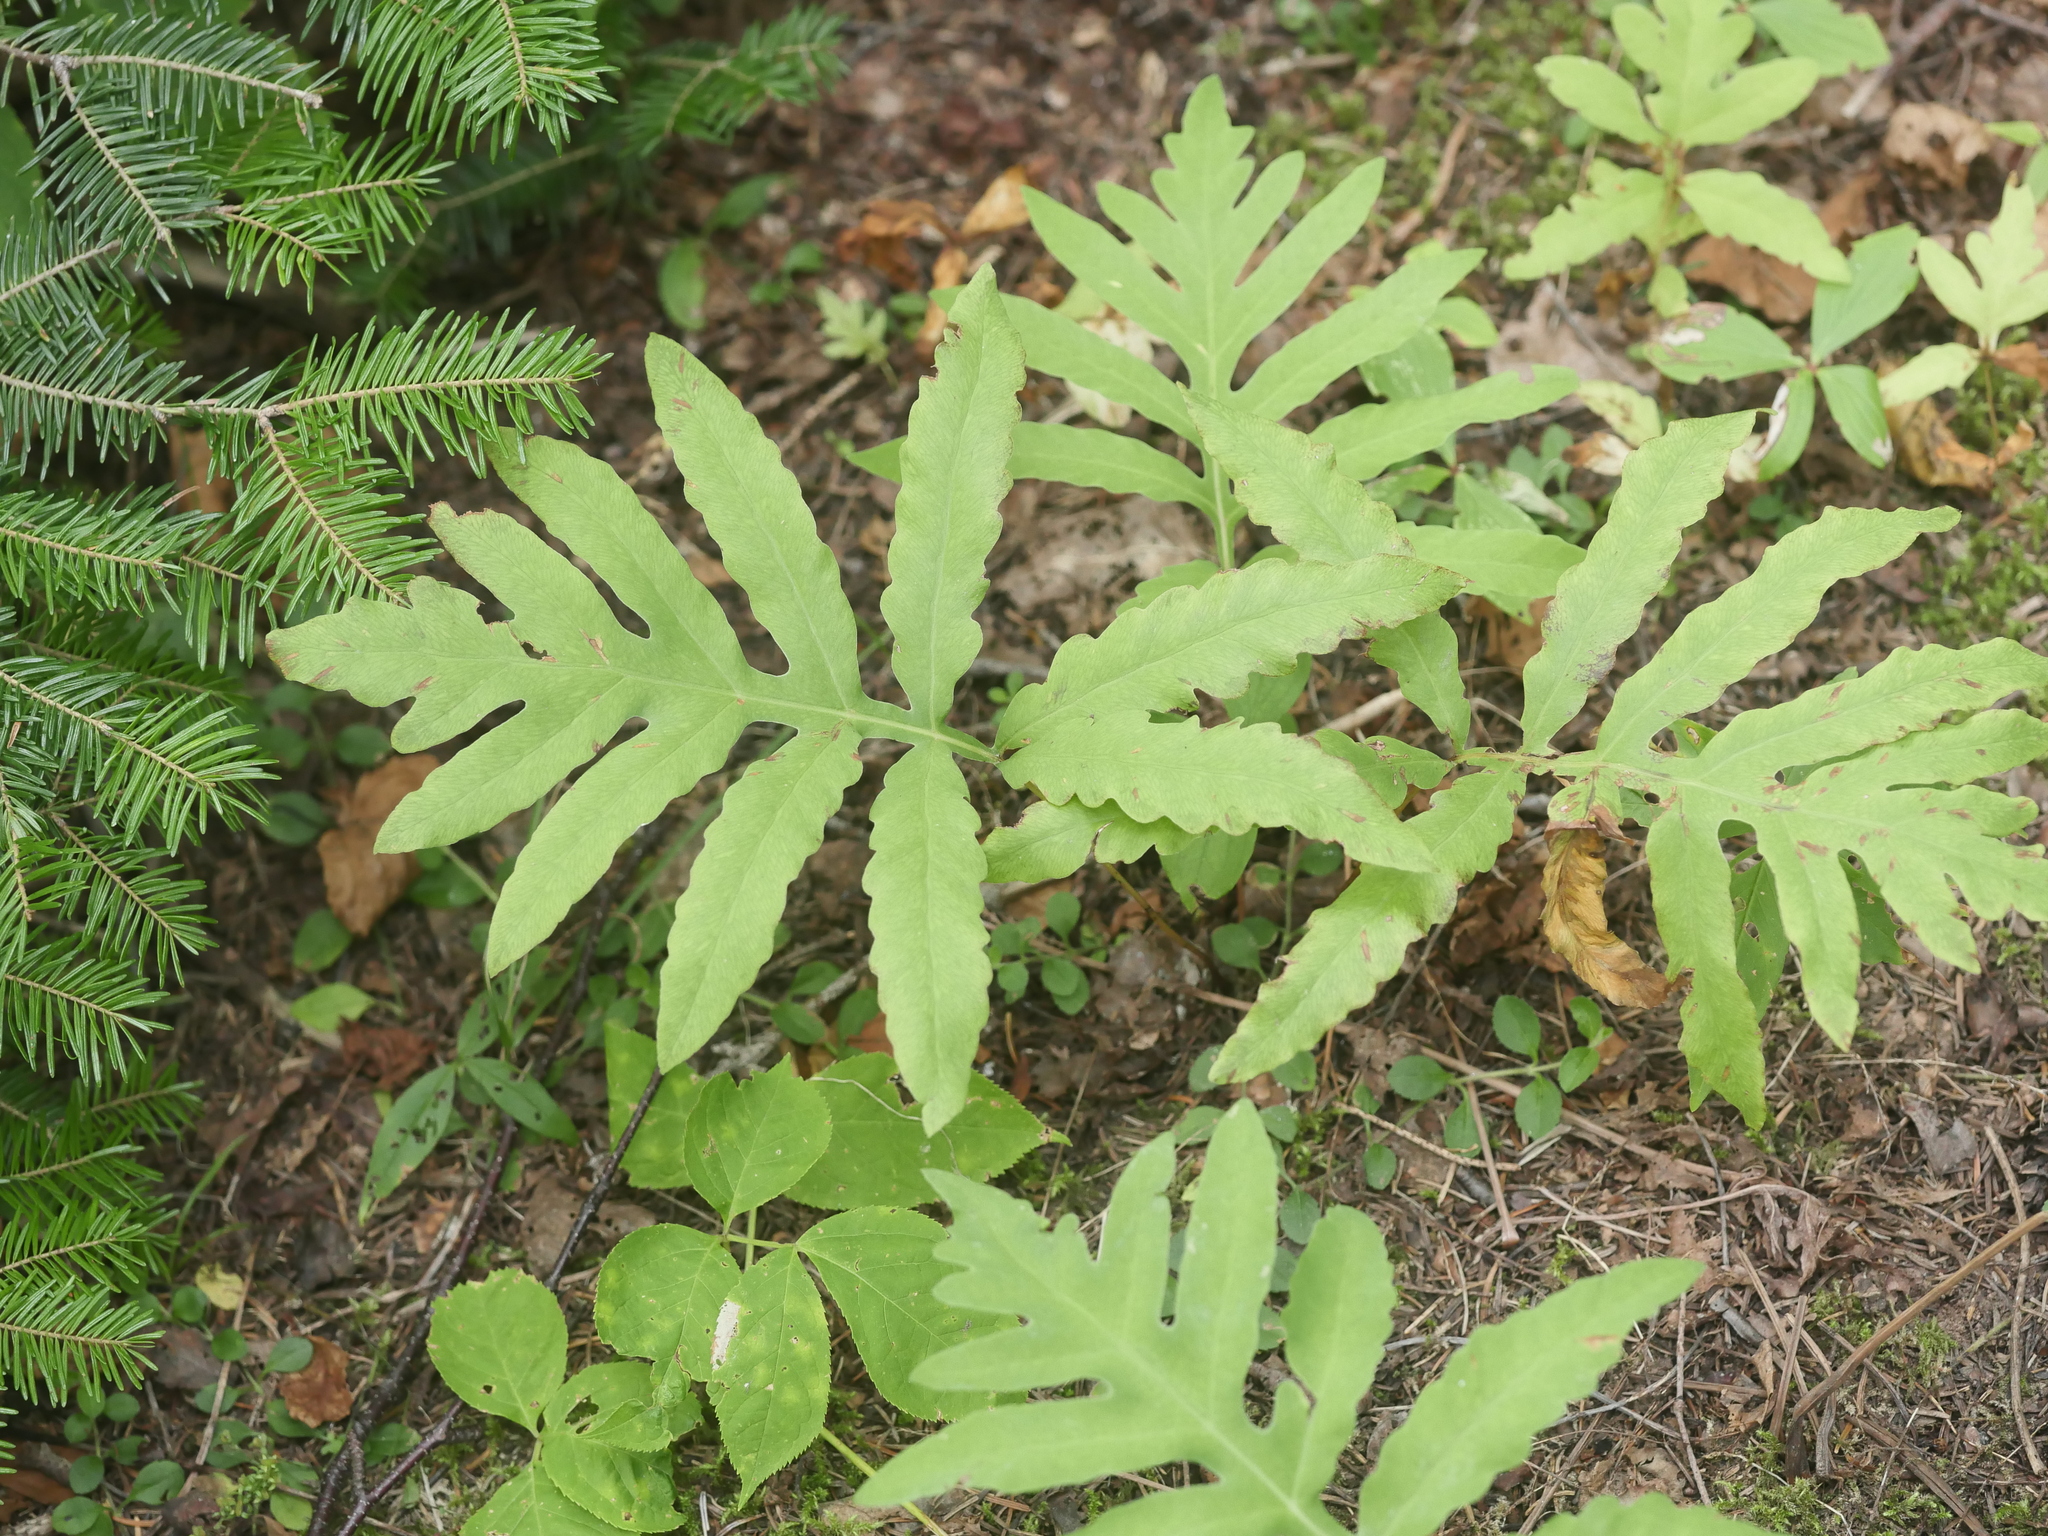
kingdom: Plantae
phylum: Tracheophyta
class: Polypodiopsida
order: Polypodiales
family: Onocleaceae
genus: Onoclea
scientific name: Onoclea sensibilis
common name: Sensitive fern
